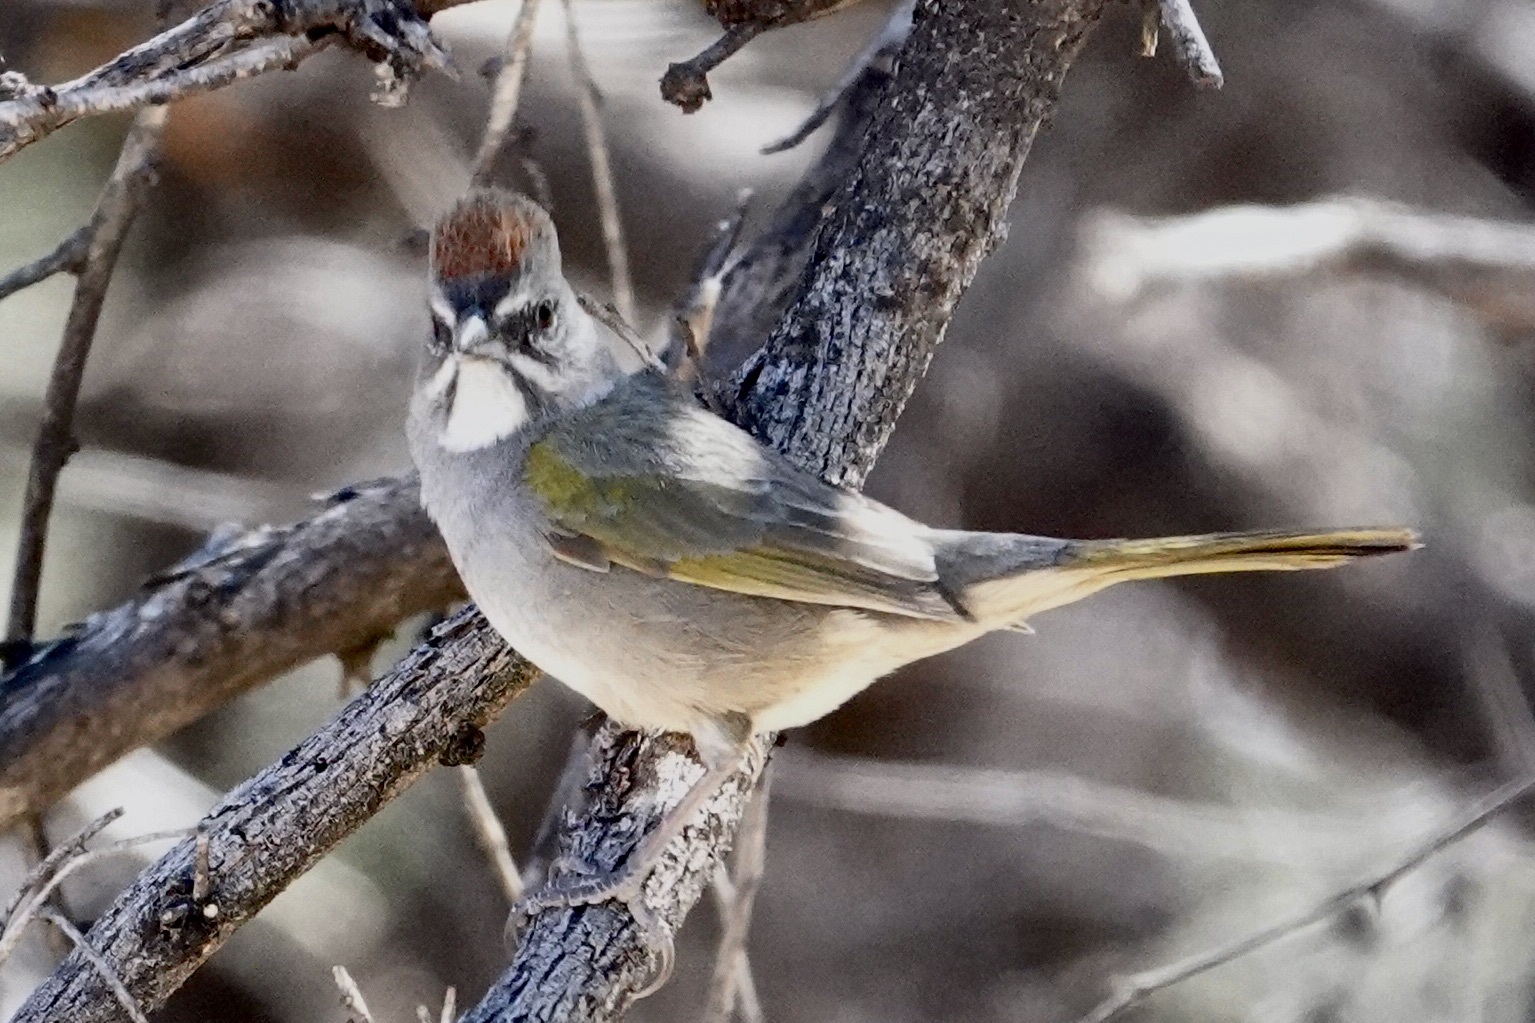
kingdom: Animalia
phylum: Chordata
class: Aves
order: Passeriformes
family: Passerellidae
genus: Pipilo
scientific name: Pipilo chlorurus
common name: Green-tailed towhee
